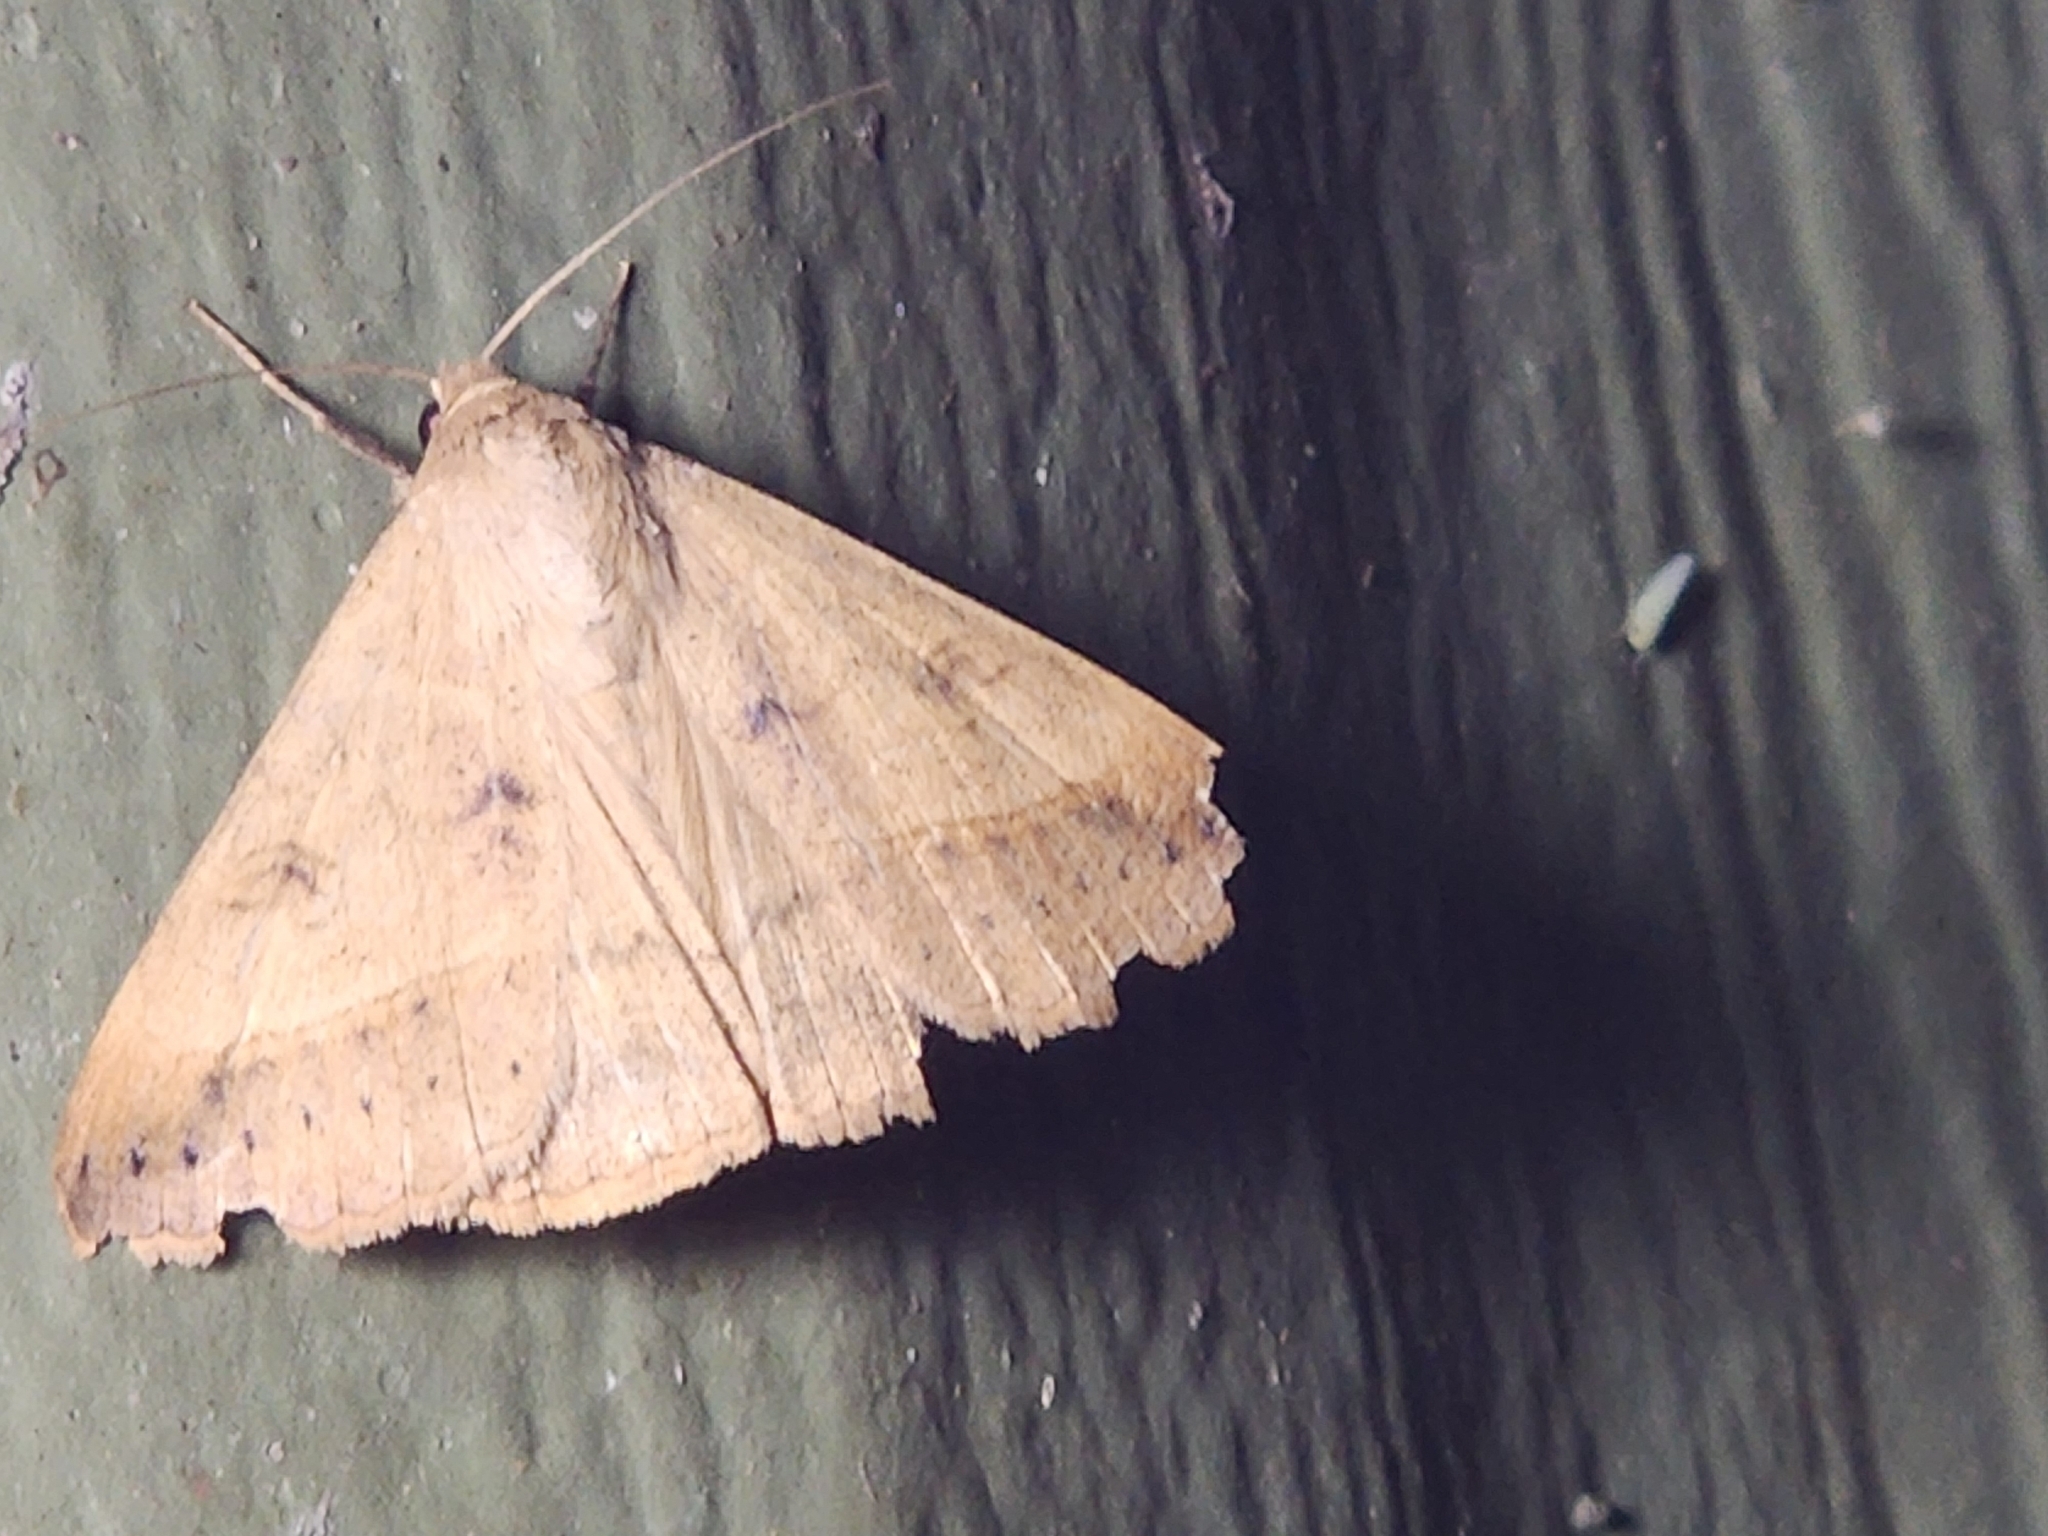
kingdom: Animalia
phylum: Arthropoda
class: Insecta
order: Lepidoptera
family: Erebidae
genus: Mocis
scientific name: Mocis marcida
